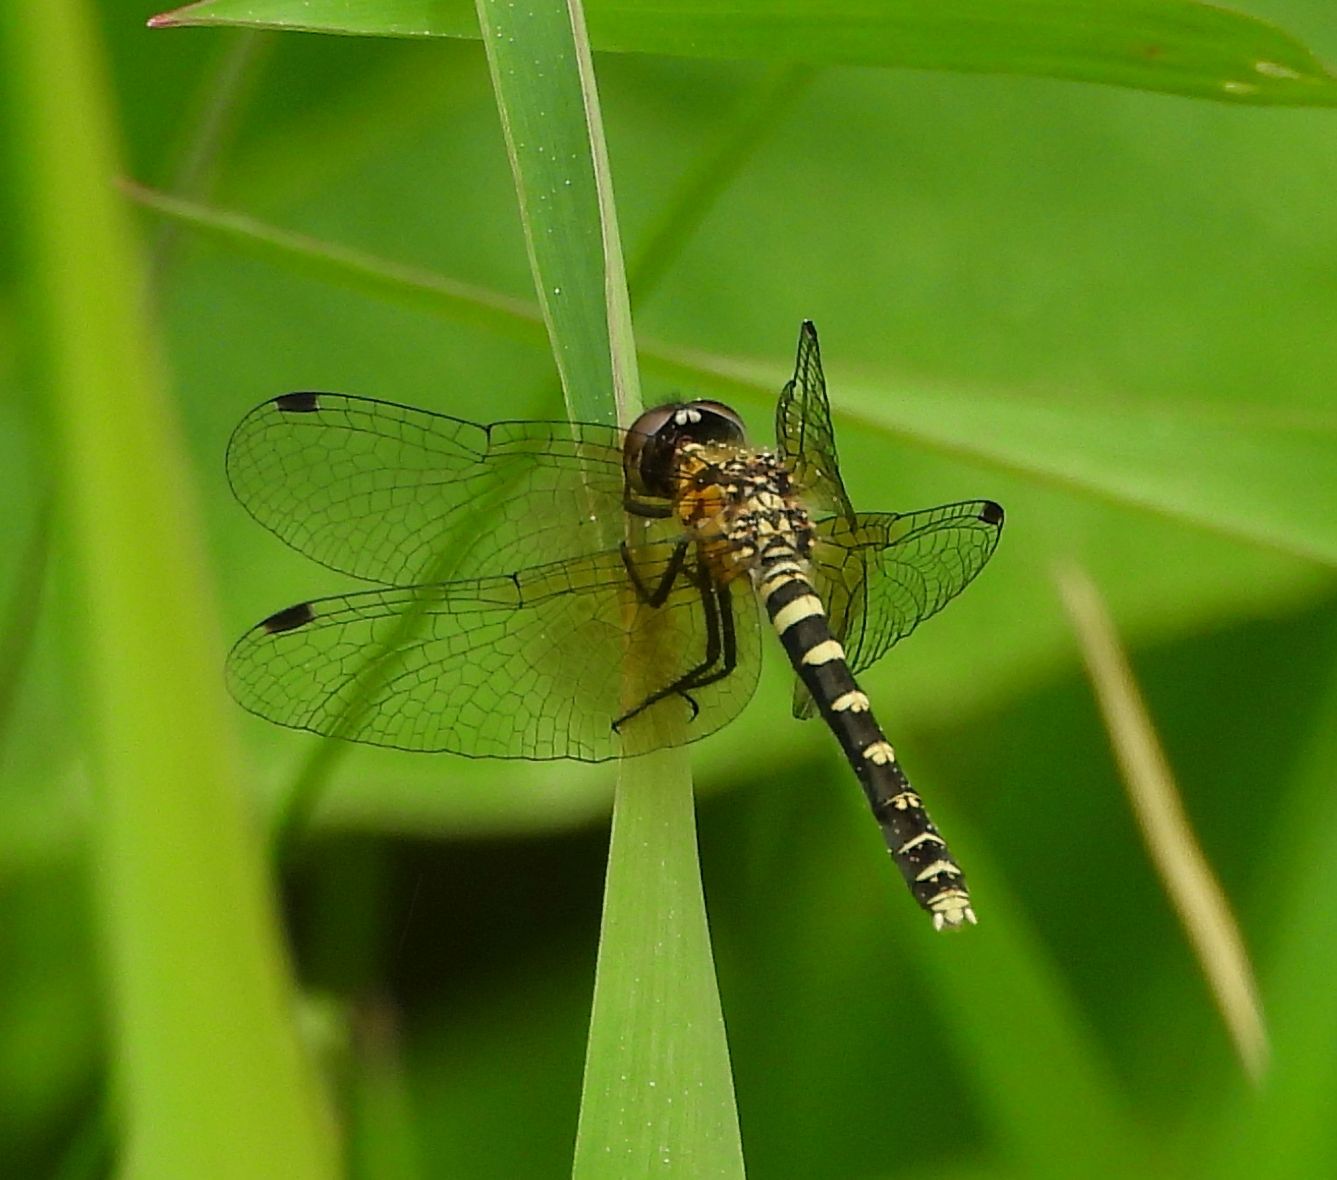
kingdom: Animalia
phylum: Arthropoda
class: Insecta
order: Odonata
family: Libellulidae
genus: Nannothemis
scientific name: Nannothemis bella
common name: Elfin skimmer
